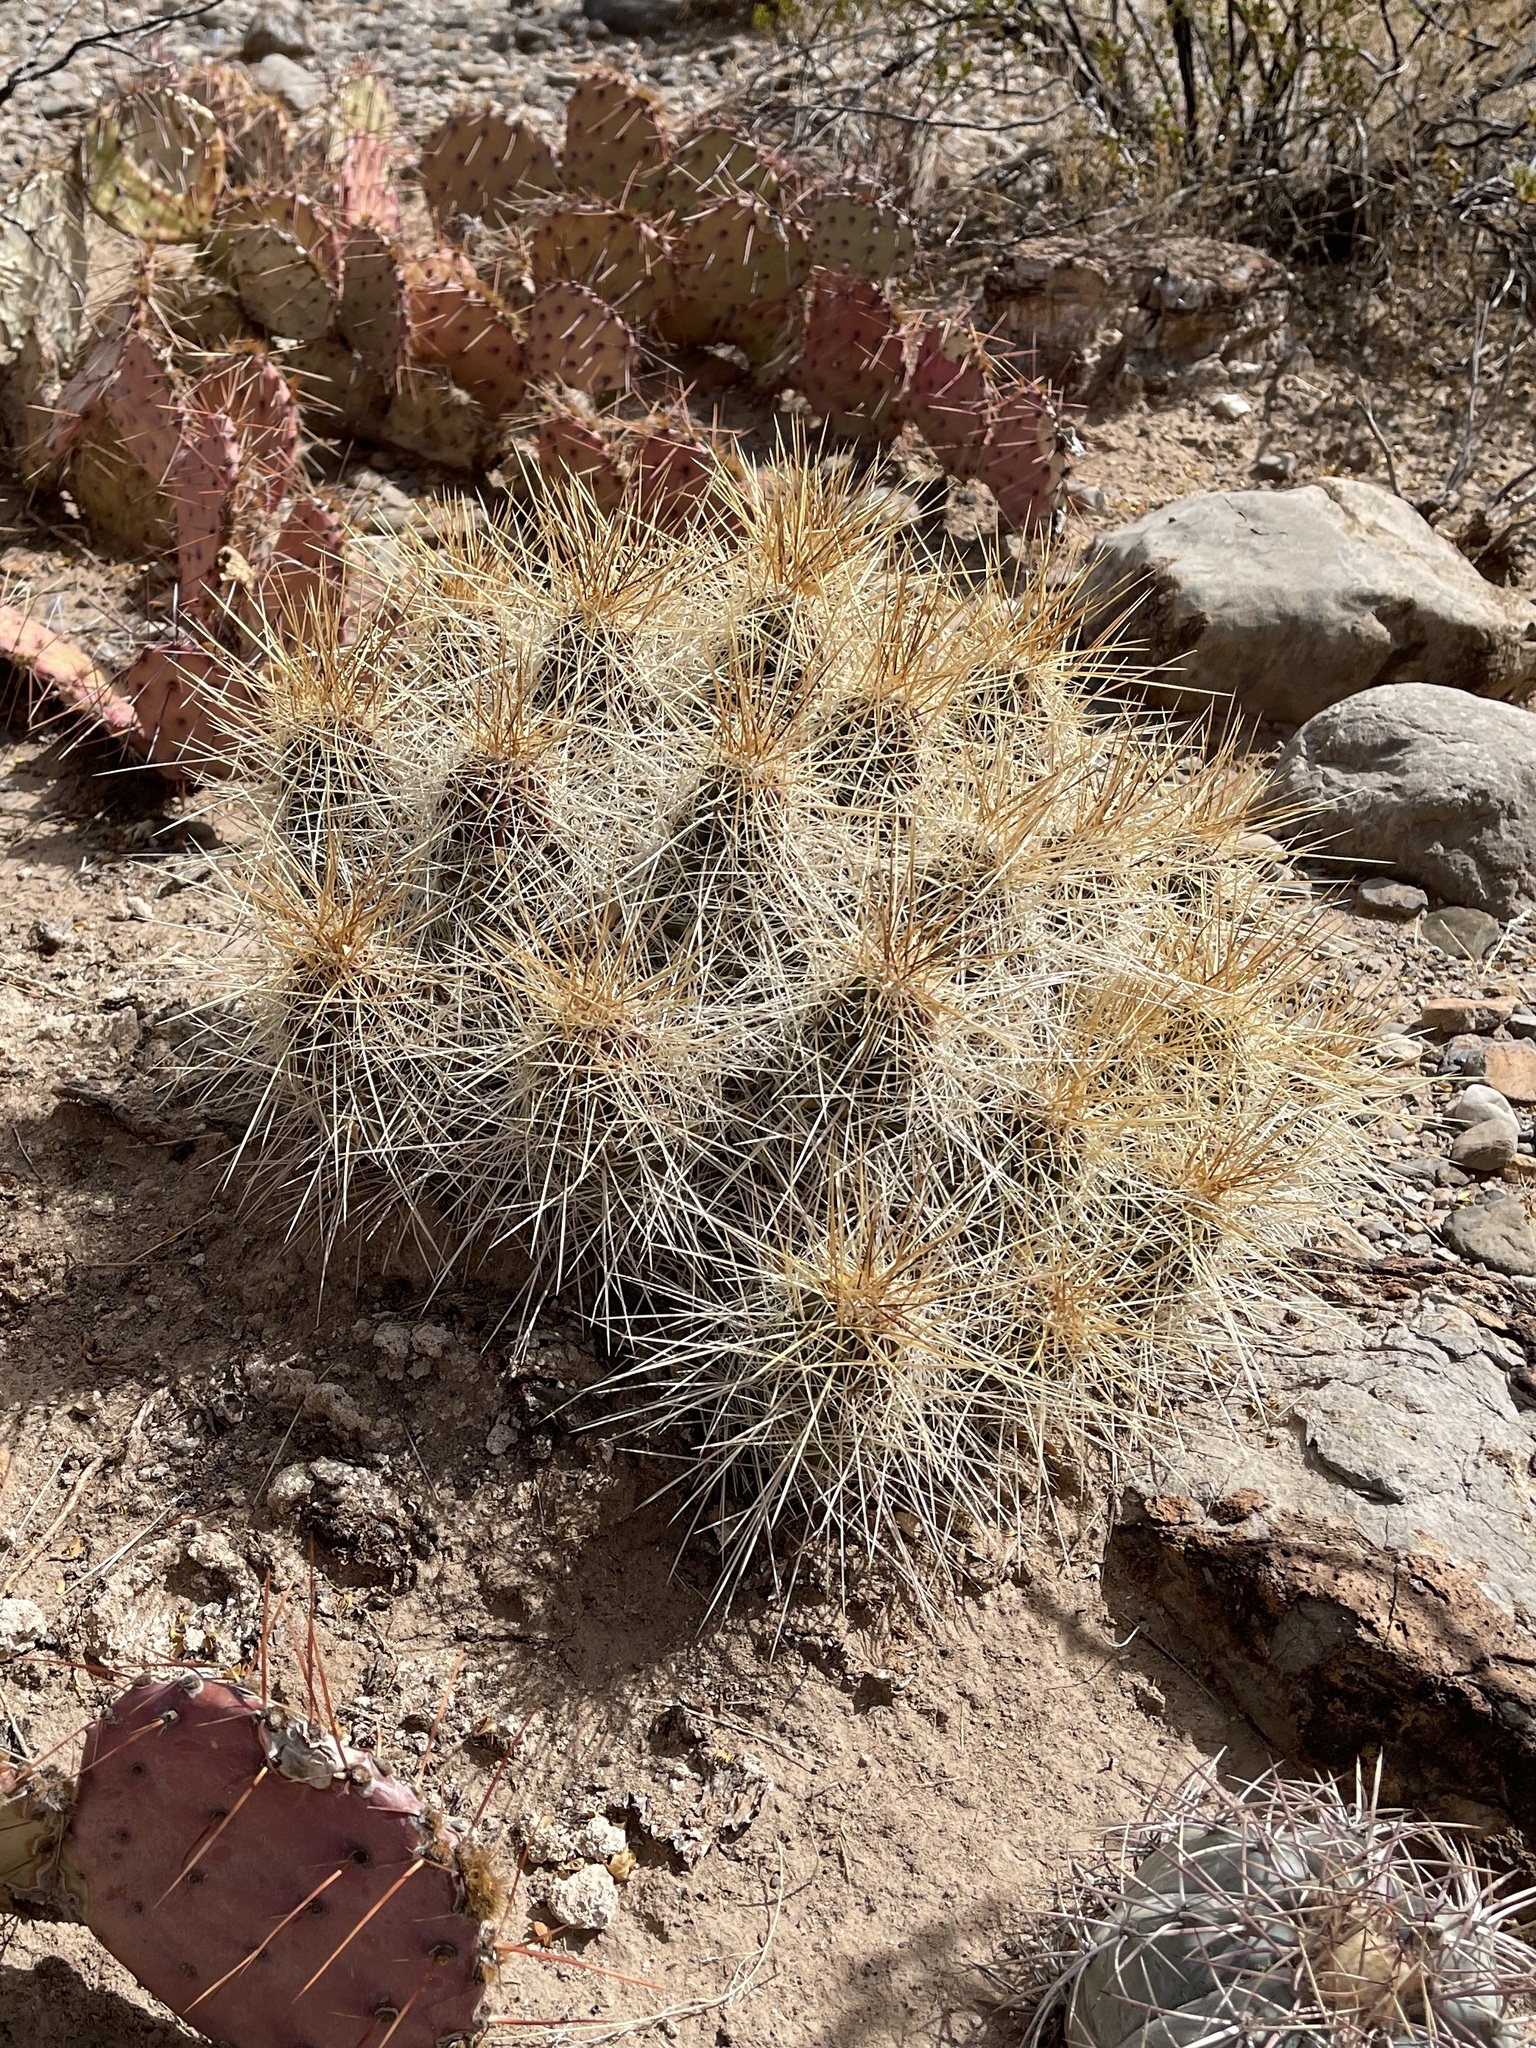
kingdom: Plantae
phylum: Tracheophyta
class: Magnoliopsida
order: Caryophyllales
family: Cactaceae
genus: Echinocereus
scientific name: Echinocereus stramineus
